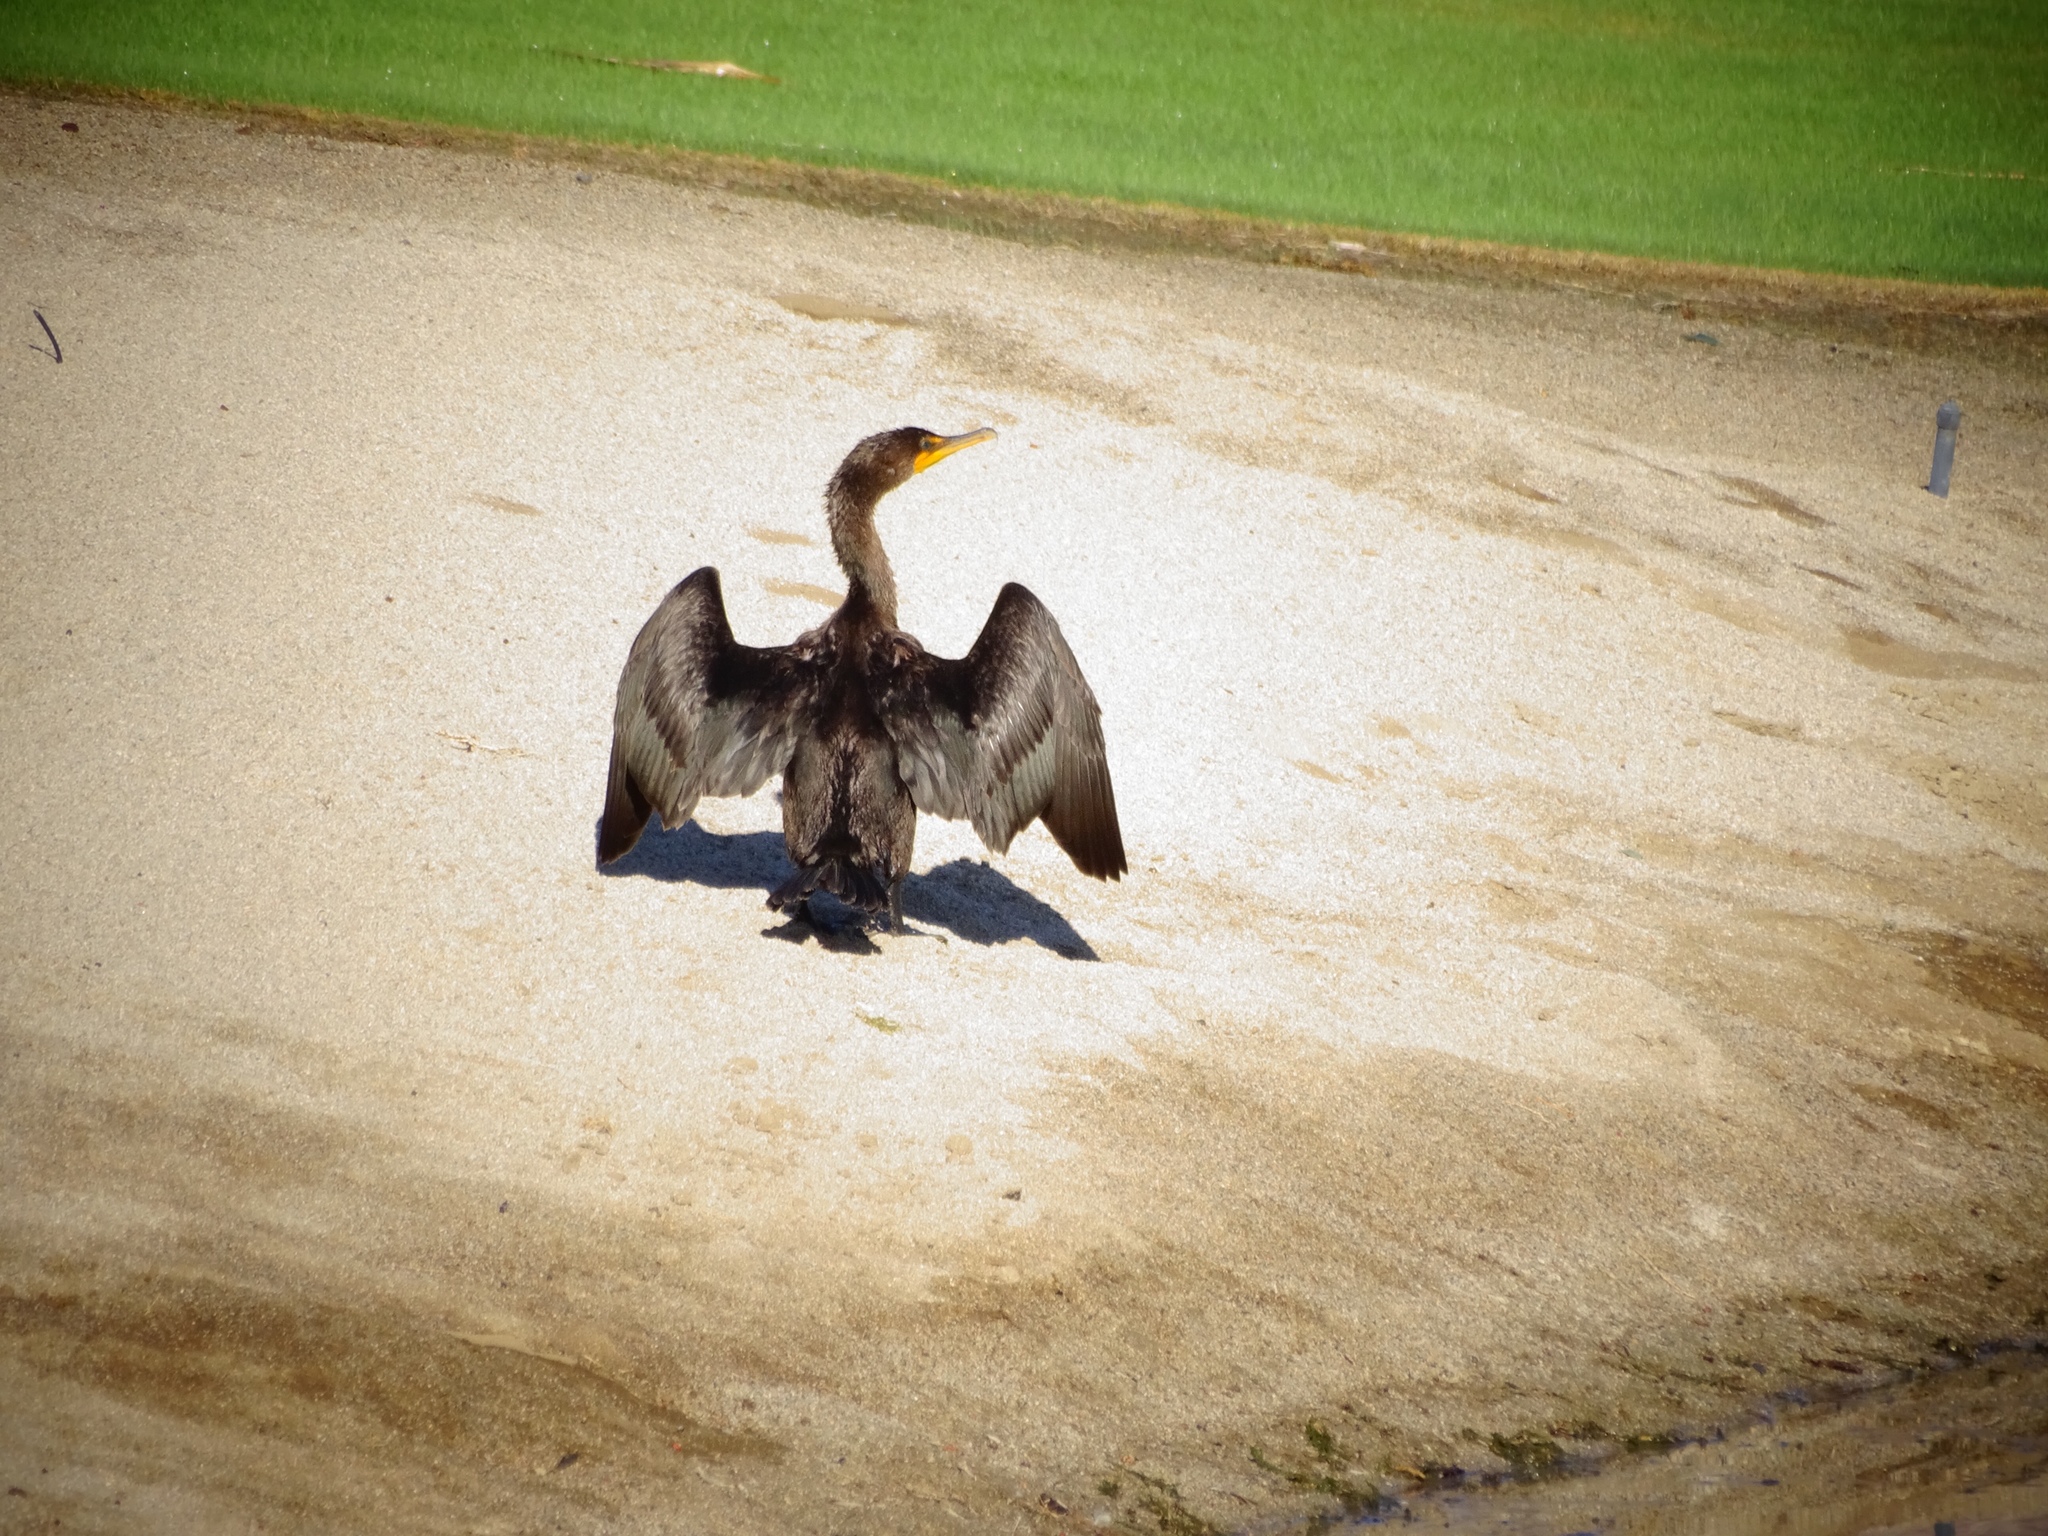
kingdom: Animalia
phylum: Chordata
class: Aves
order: Suliformes
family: Phalacrocoracidae
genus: Phalacrocorax
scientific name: Phalacrocorax auritus
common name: Double-crested cormorant
